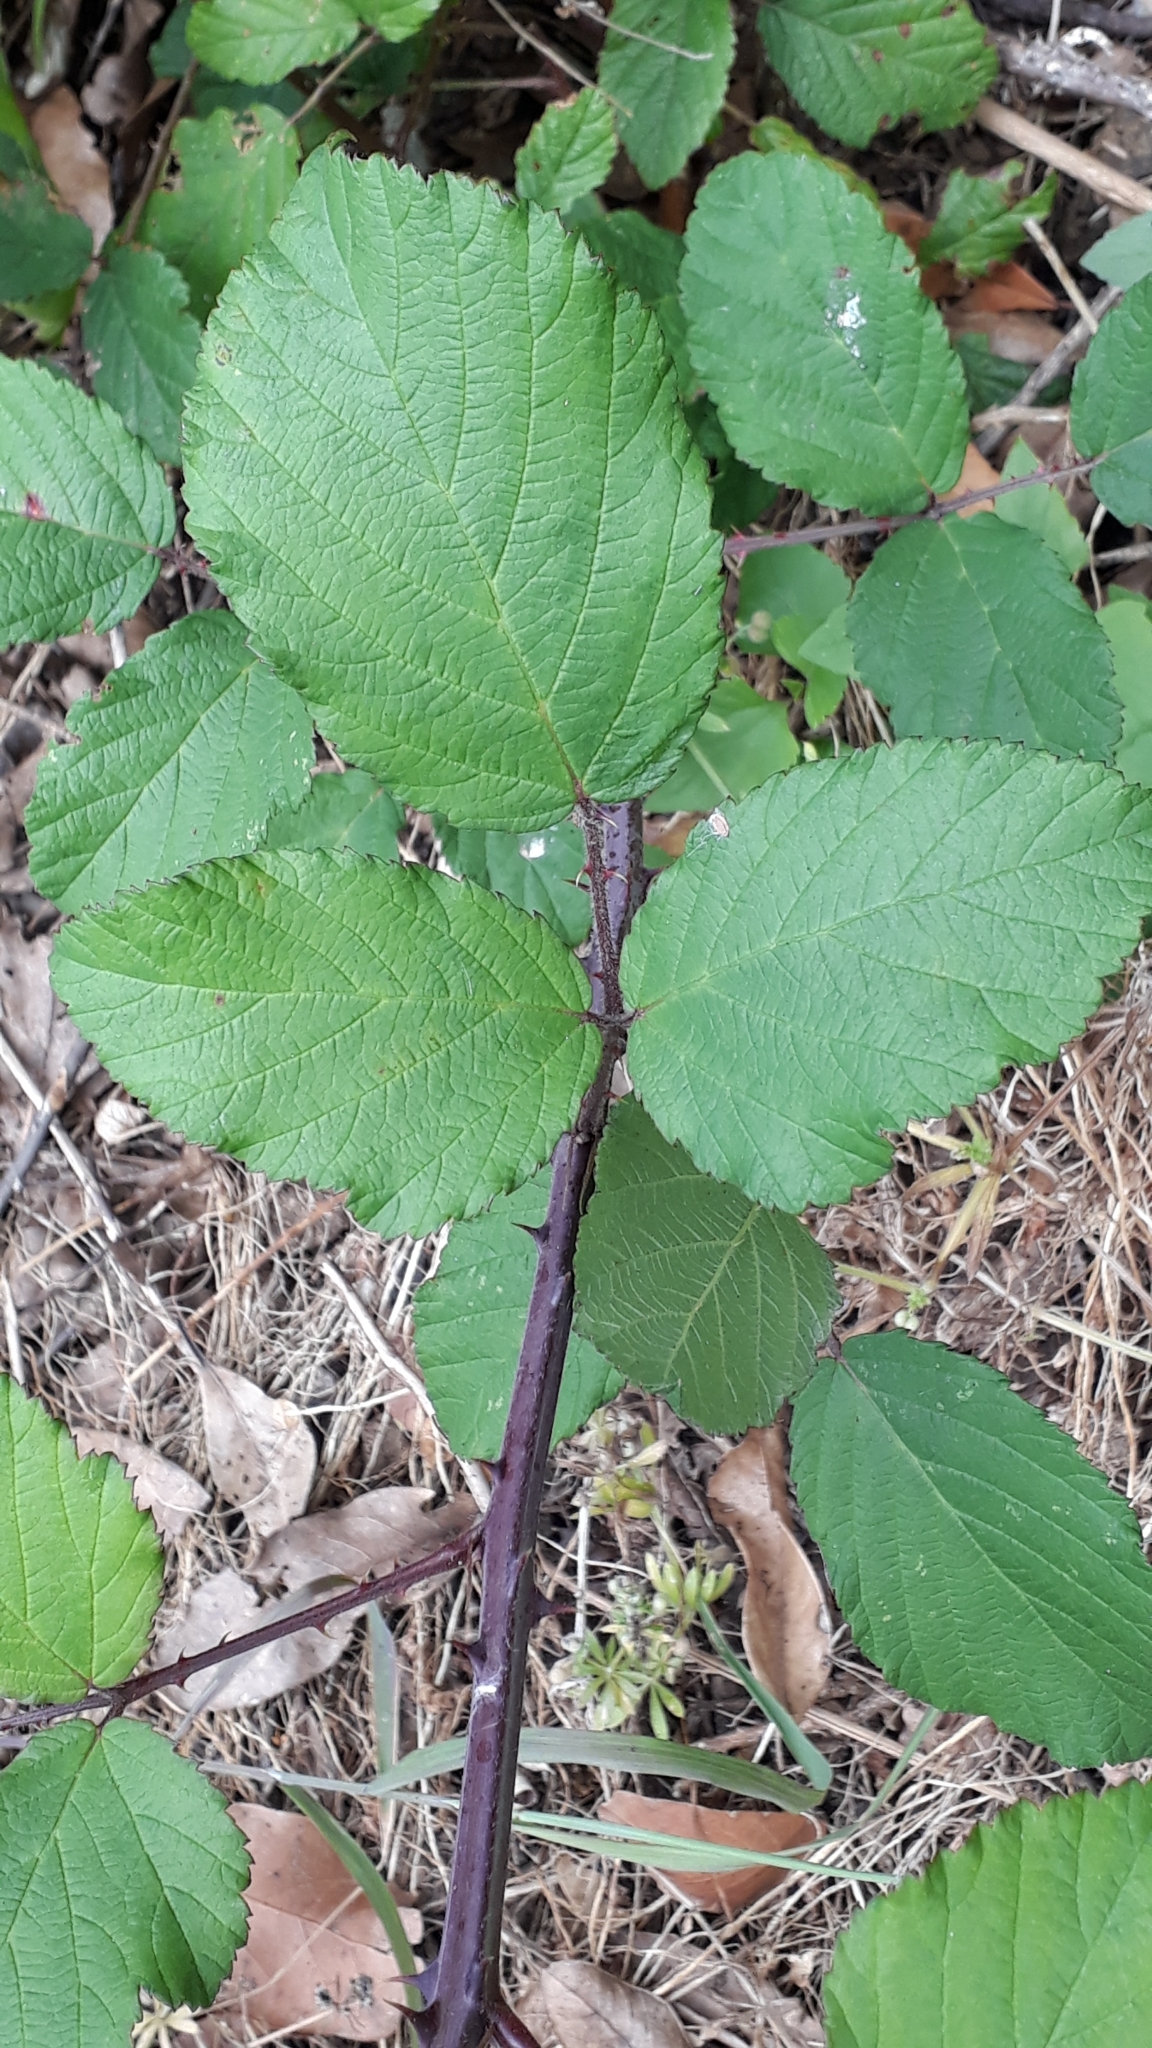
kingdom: Plantae
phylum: Tracheophyta
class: Magnoliopsida
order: Rosales
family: Rosaceae
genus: Rubus
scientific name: Rubus bollei
